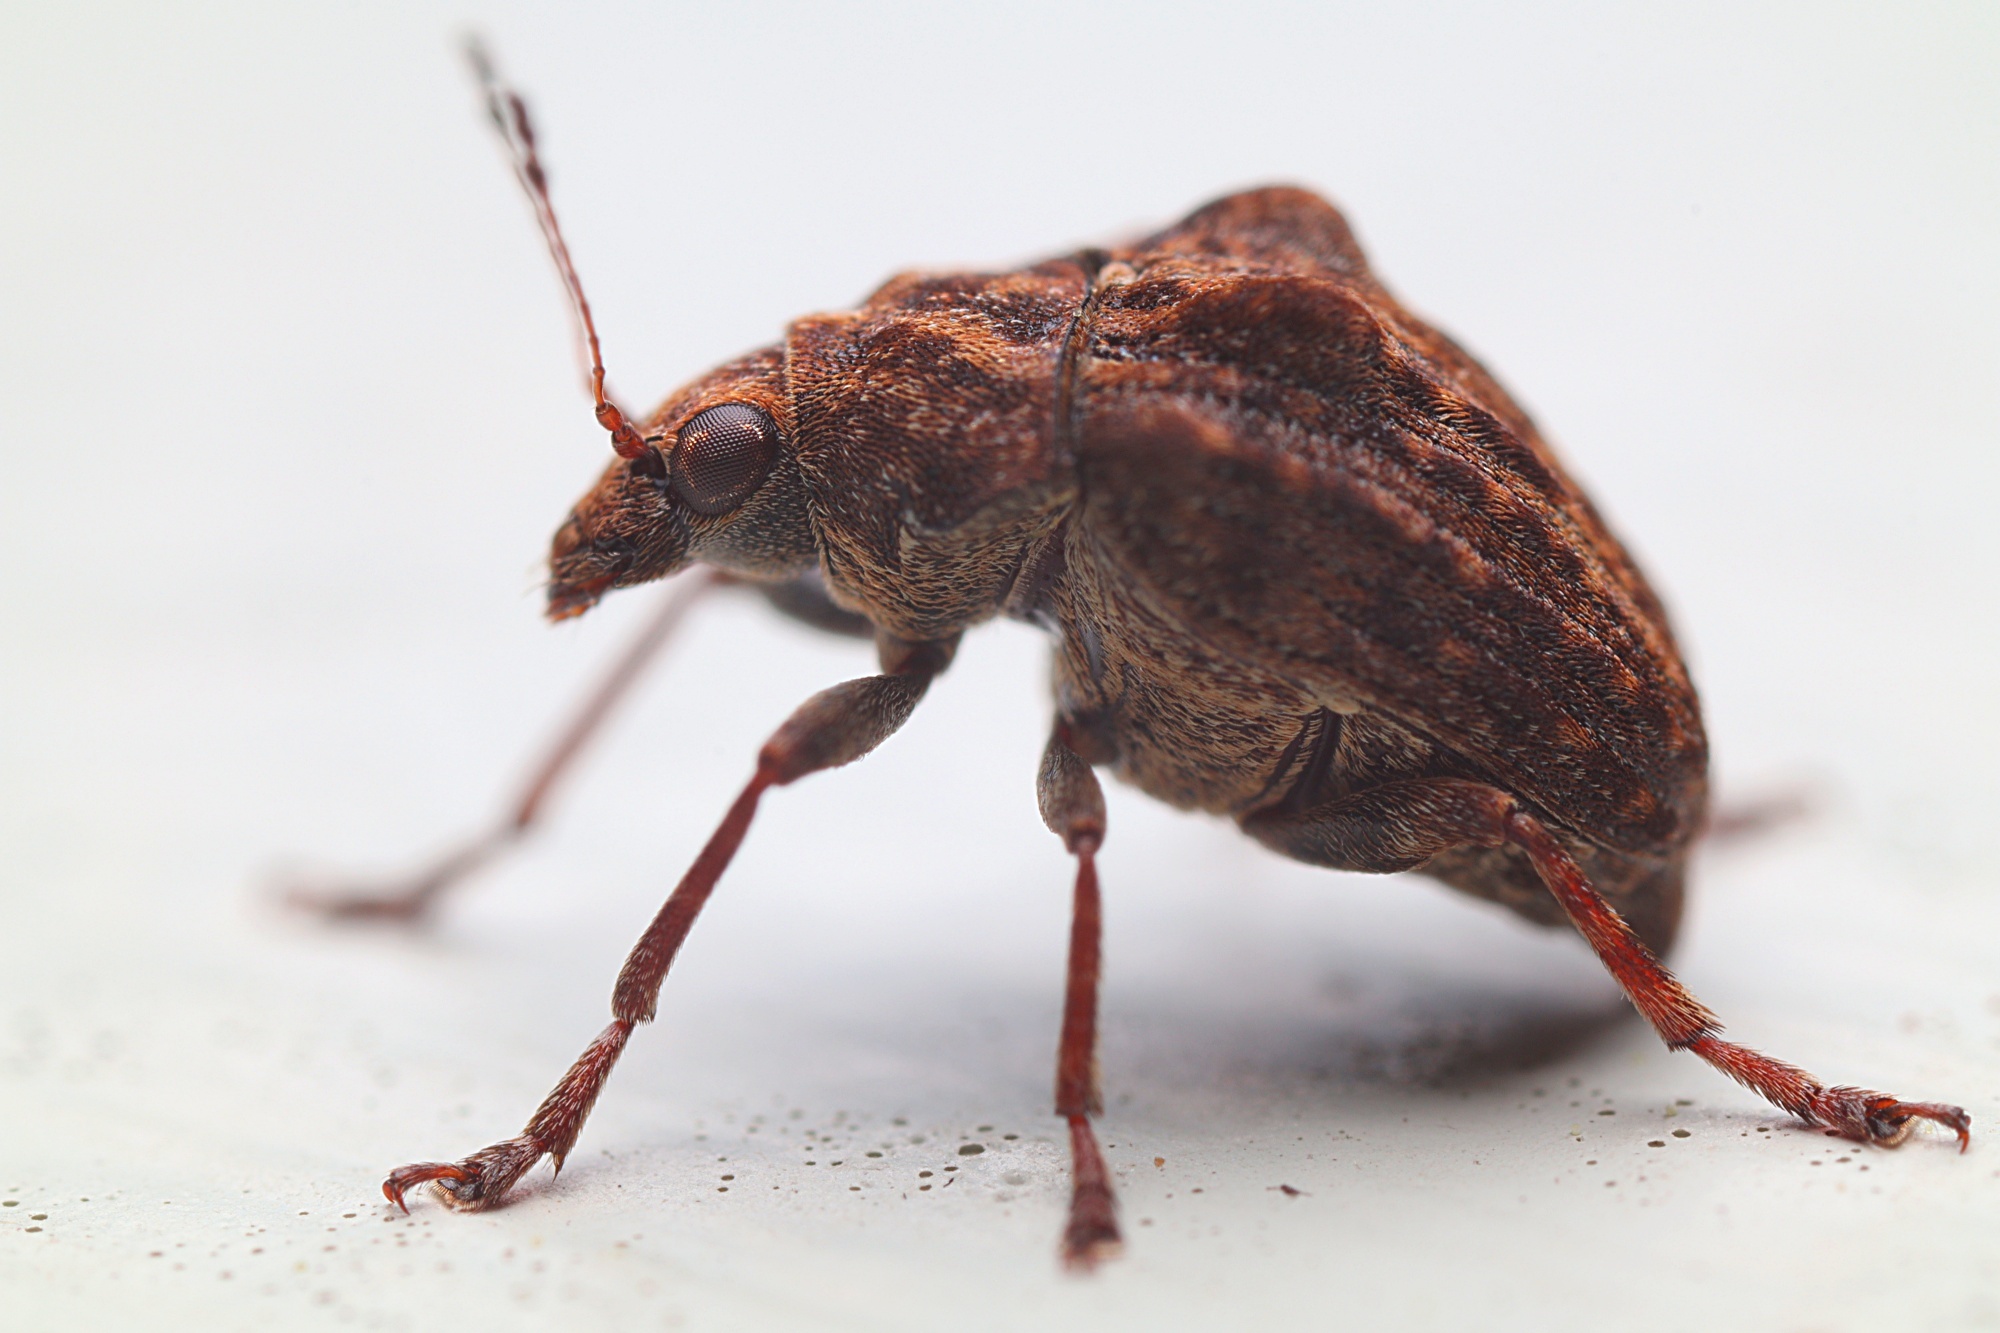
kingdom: Animalia
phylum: Arthropoda
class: Insecta
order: Coleoptera
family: Anthribidae
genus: Araecerus
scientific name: Araecerus
